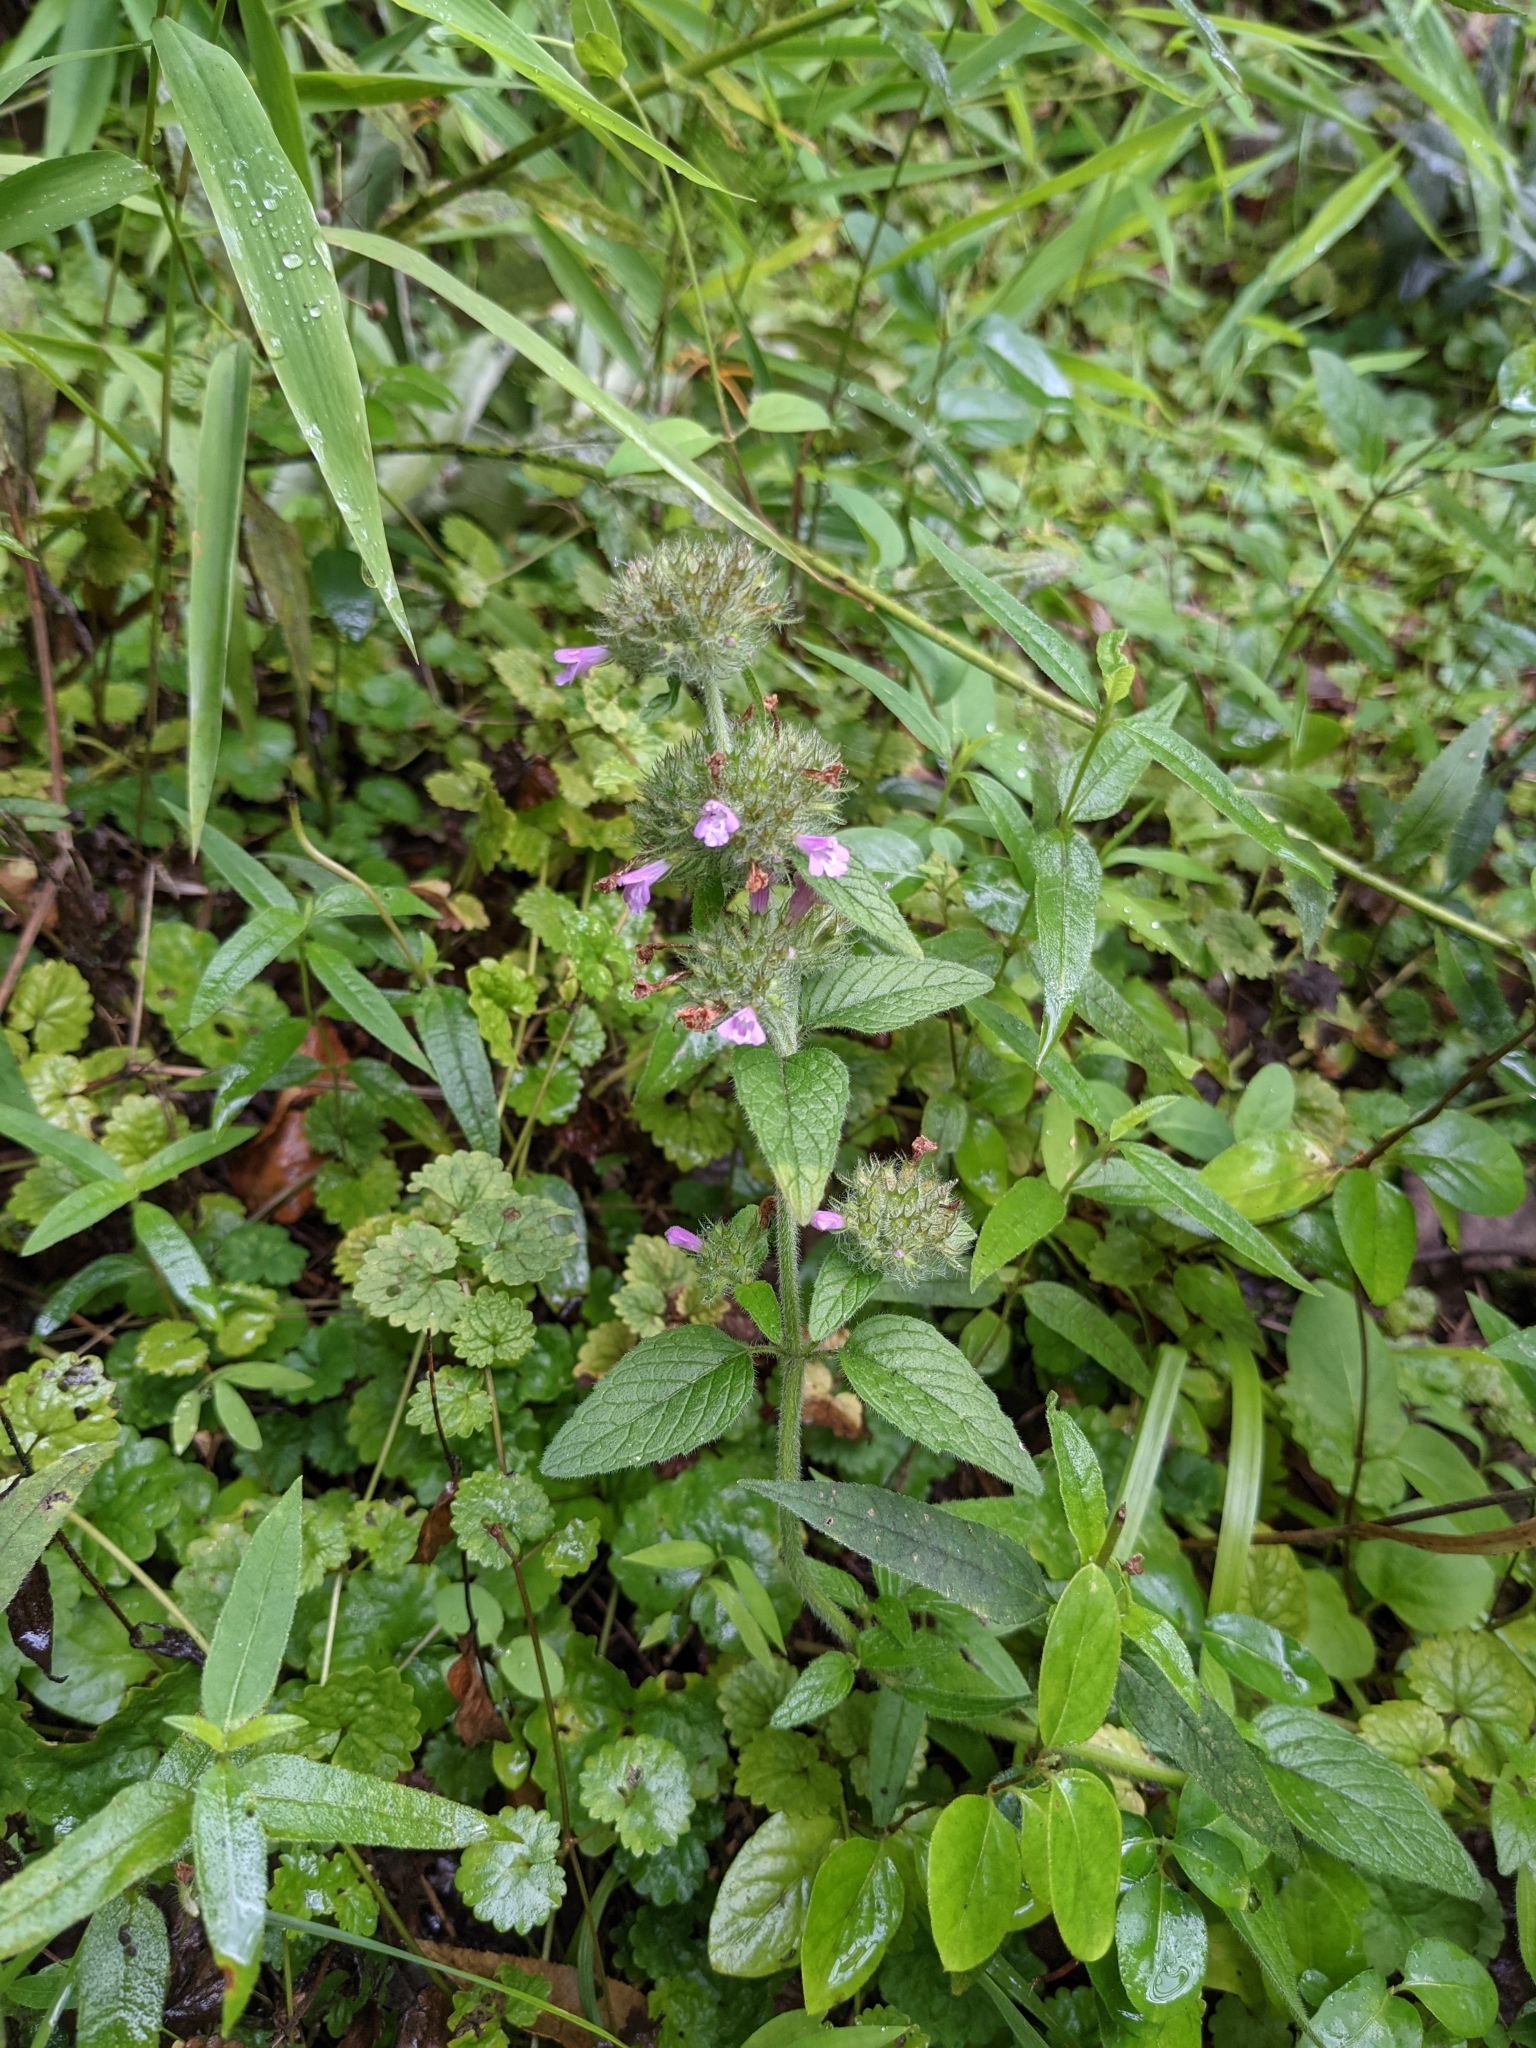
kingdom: Plantae
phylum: Tracheophyta
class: Magnoliopsida
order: Lamiales
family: Lamiaceae
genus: Clinopodium
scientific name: Clinopodium vulgare
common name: Wild basil
